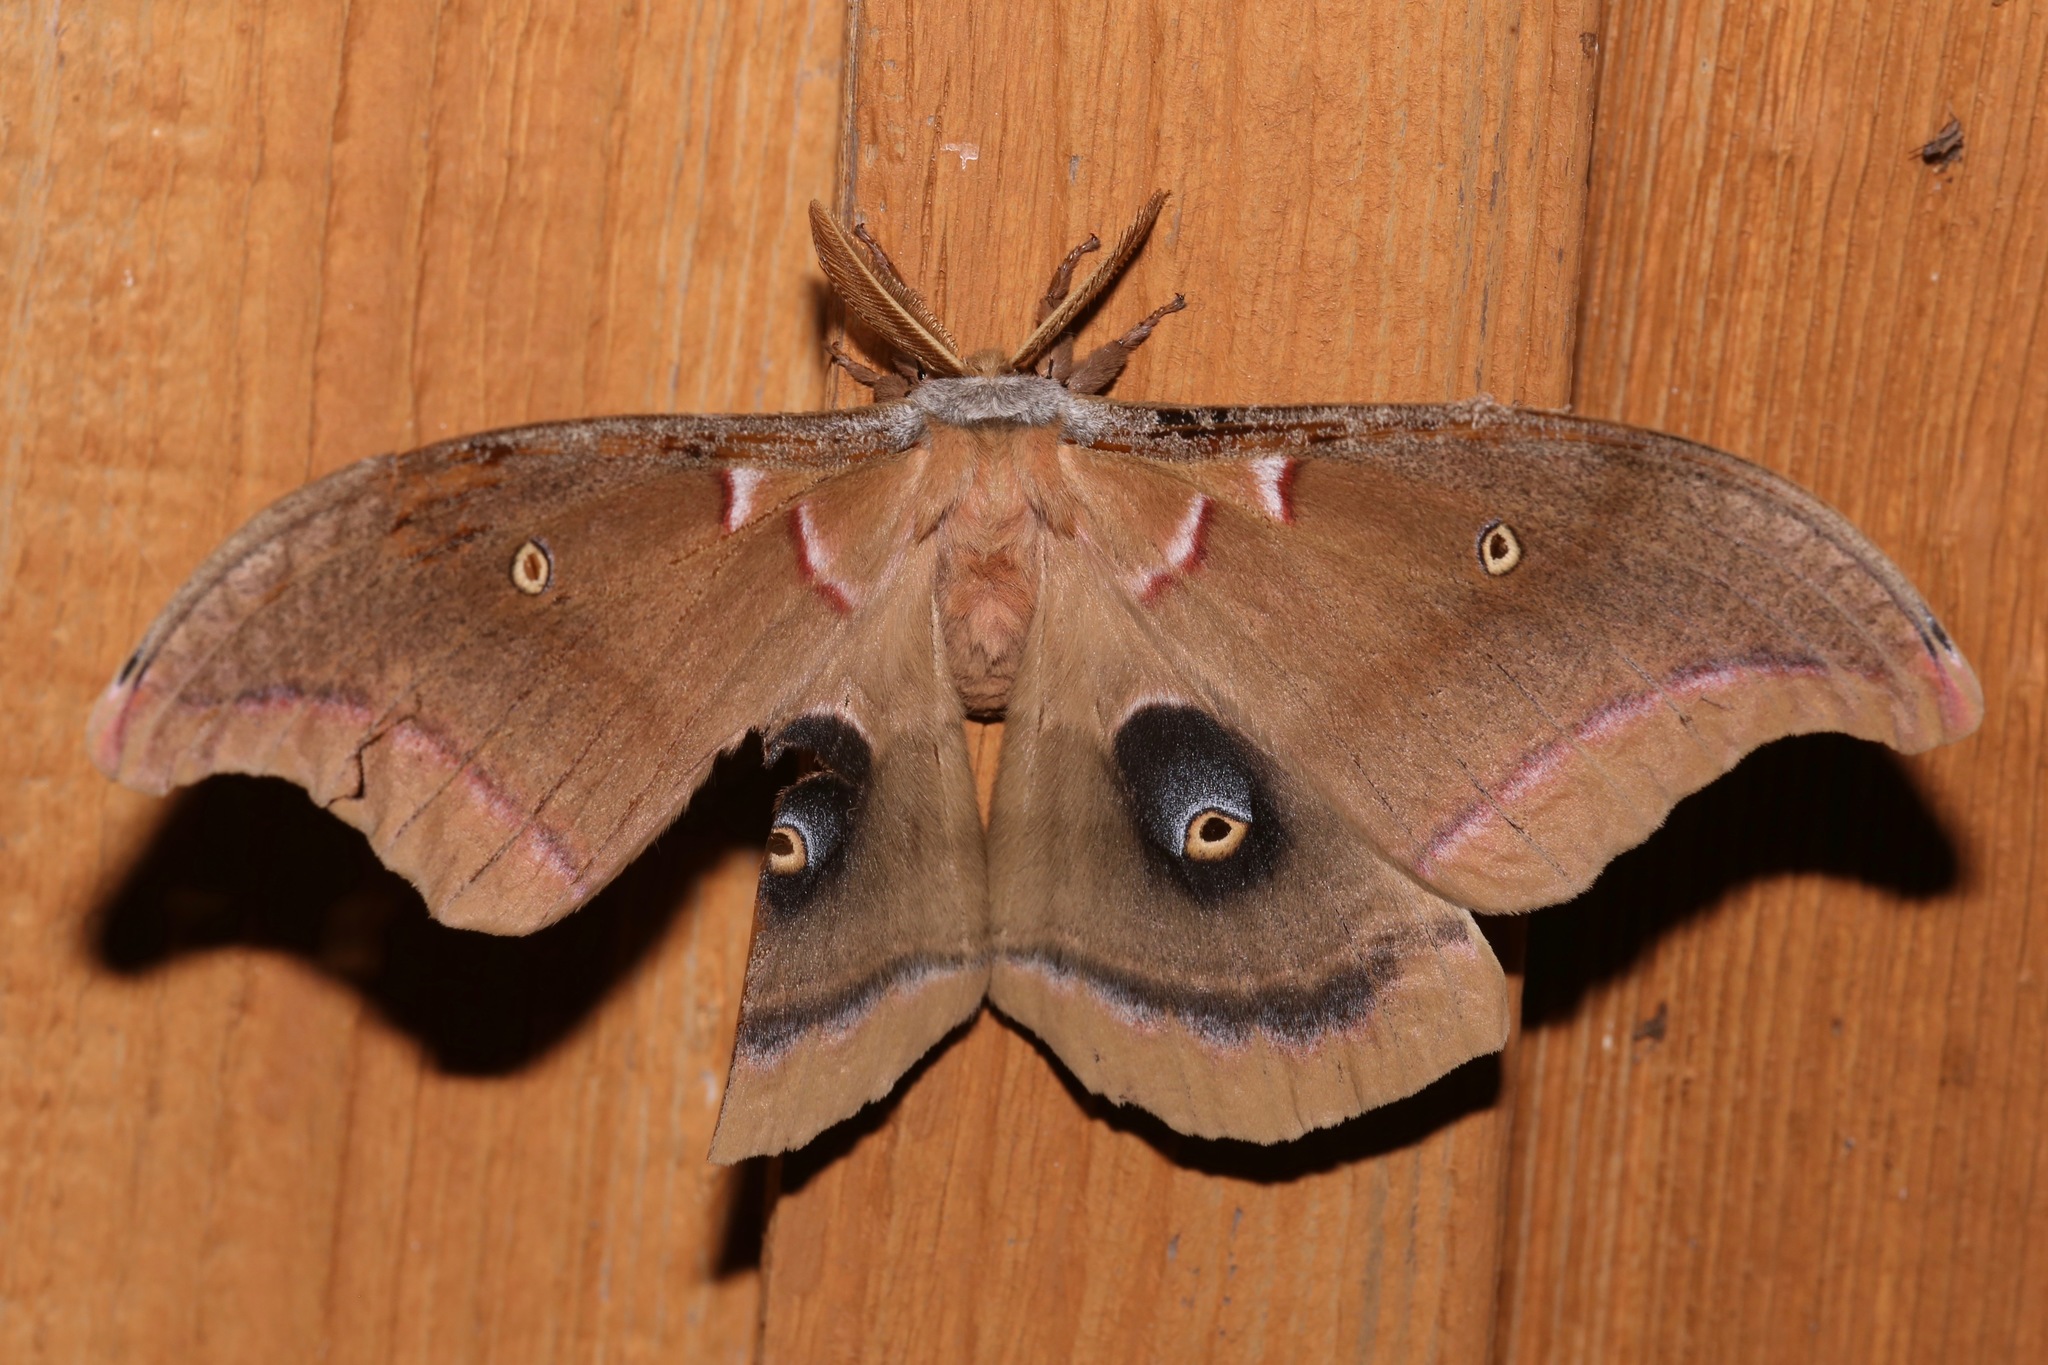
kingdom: Animalia
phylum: Arthropoda
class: Insecta
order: Lepidoptera
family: Saturniidae
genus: Antheraea
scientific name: Antheraea polyphemus
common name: Polyphemus moth
